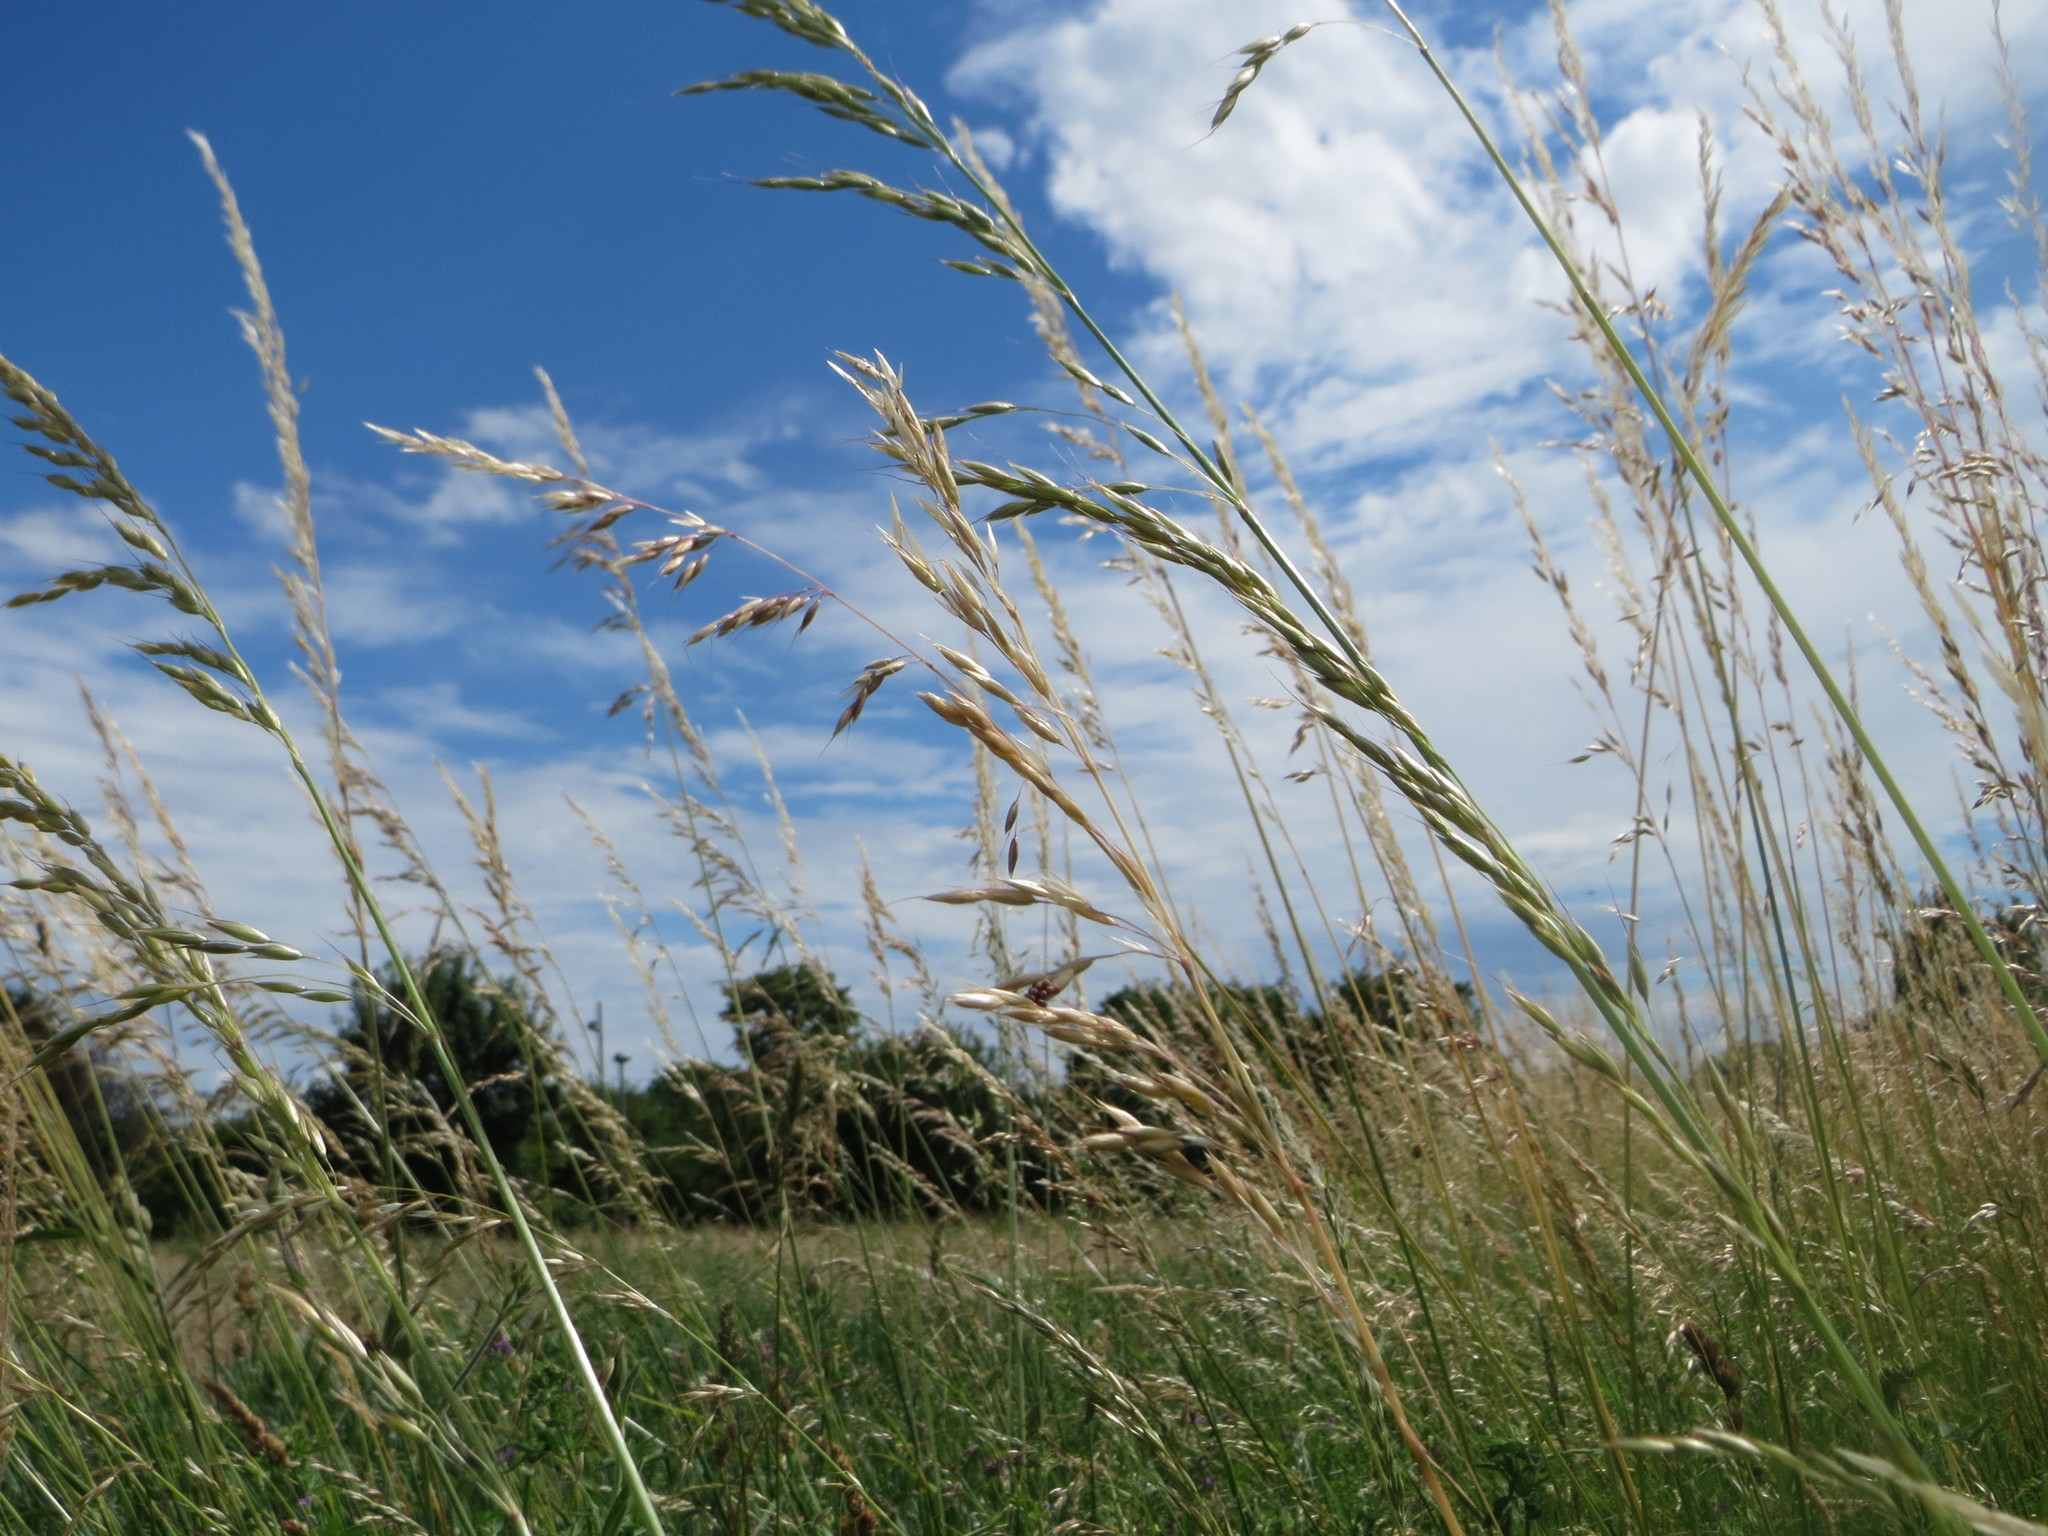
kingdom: Plantae
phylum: Tracheophyta
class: Liliopsida
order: Poales
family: Poaceae
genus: Arrhenatherum
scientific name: Arrhenatherum elatius
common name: Tall oatgrass
